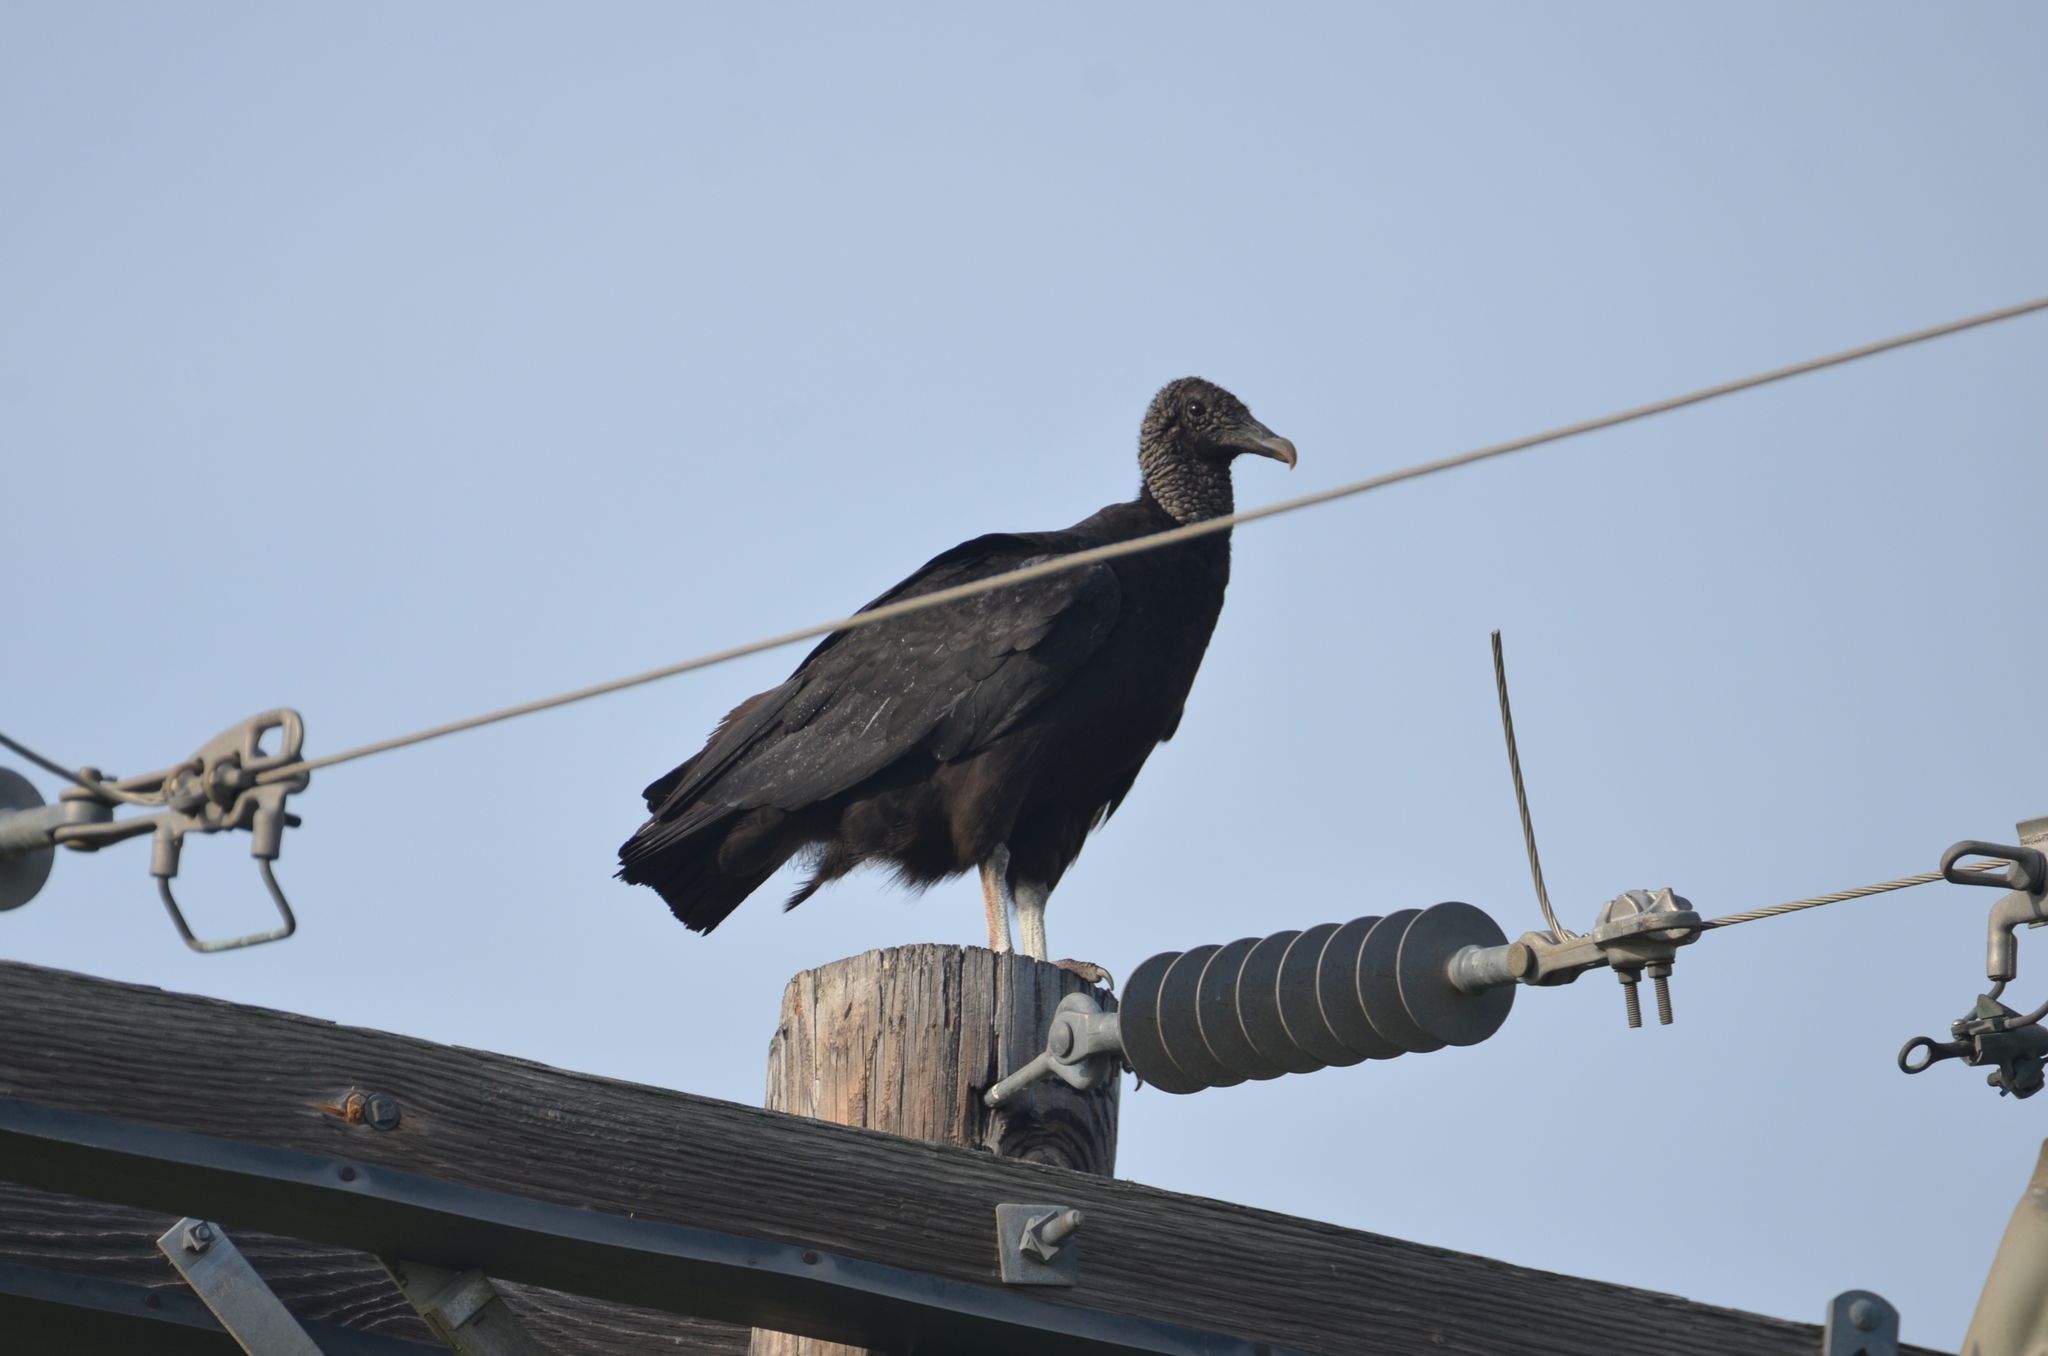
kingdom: Animalia
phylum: Chordata
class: Aves
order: Accipitriformes
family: Cathartidae
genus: Coragyps
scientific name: Coragyps atratus
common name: Black vulture
